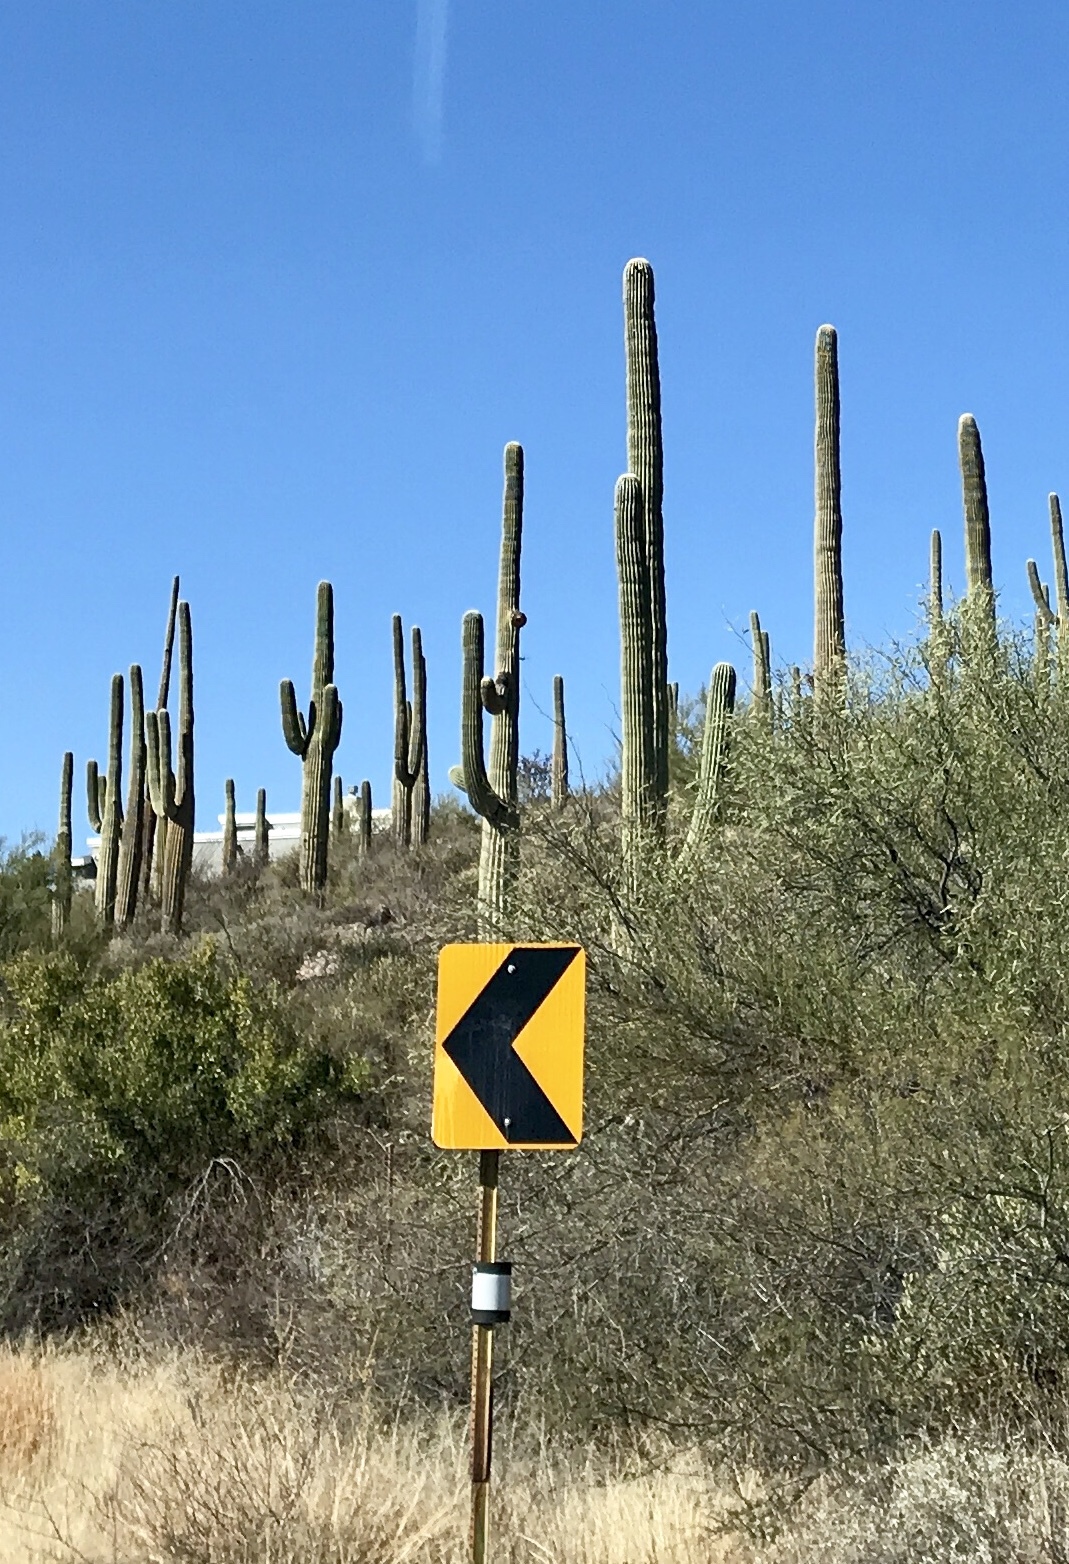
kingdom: Plantae
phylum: Tracheophyta
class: Magnoliopsida
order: Caryophyllales
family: Cactaceae
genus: Carnegiea
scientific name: Carnegiea gigantea
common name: Saguaro
